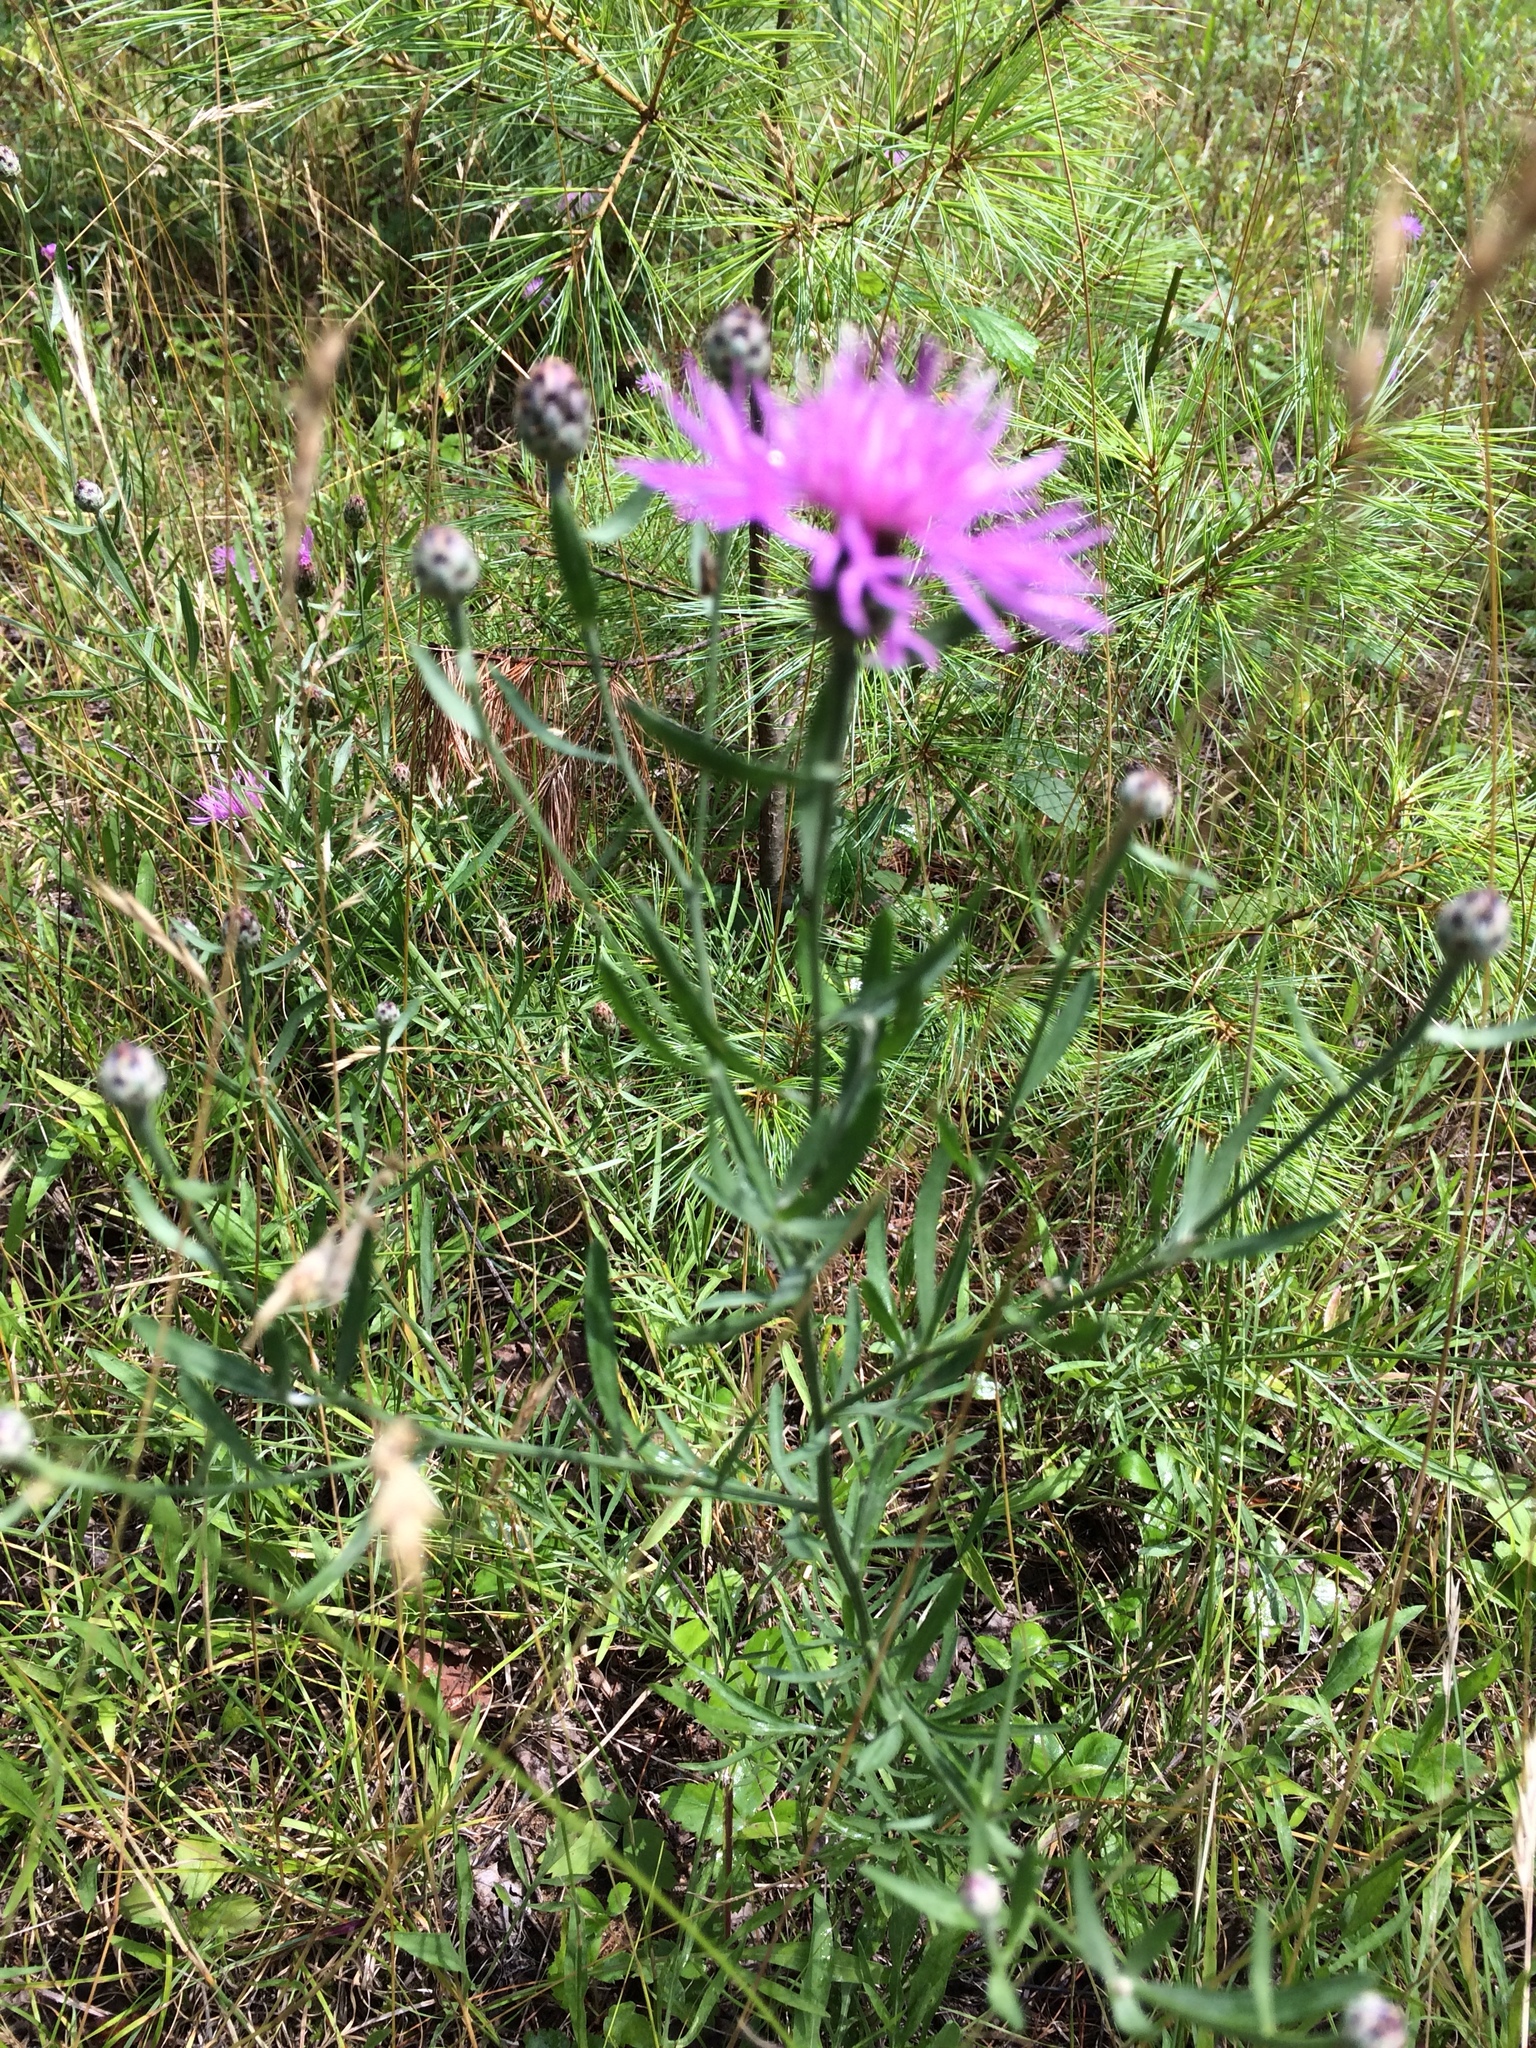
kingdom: Plantae
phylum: Tracheophyta
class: Magnoliopsida
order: Asterales
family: Asteraceae
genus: Centaurea
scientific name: Centaurea stoebe
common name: Spotted knapweed
